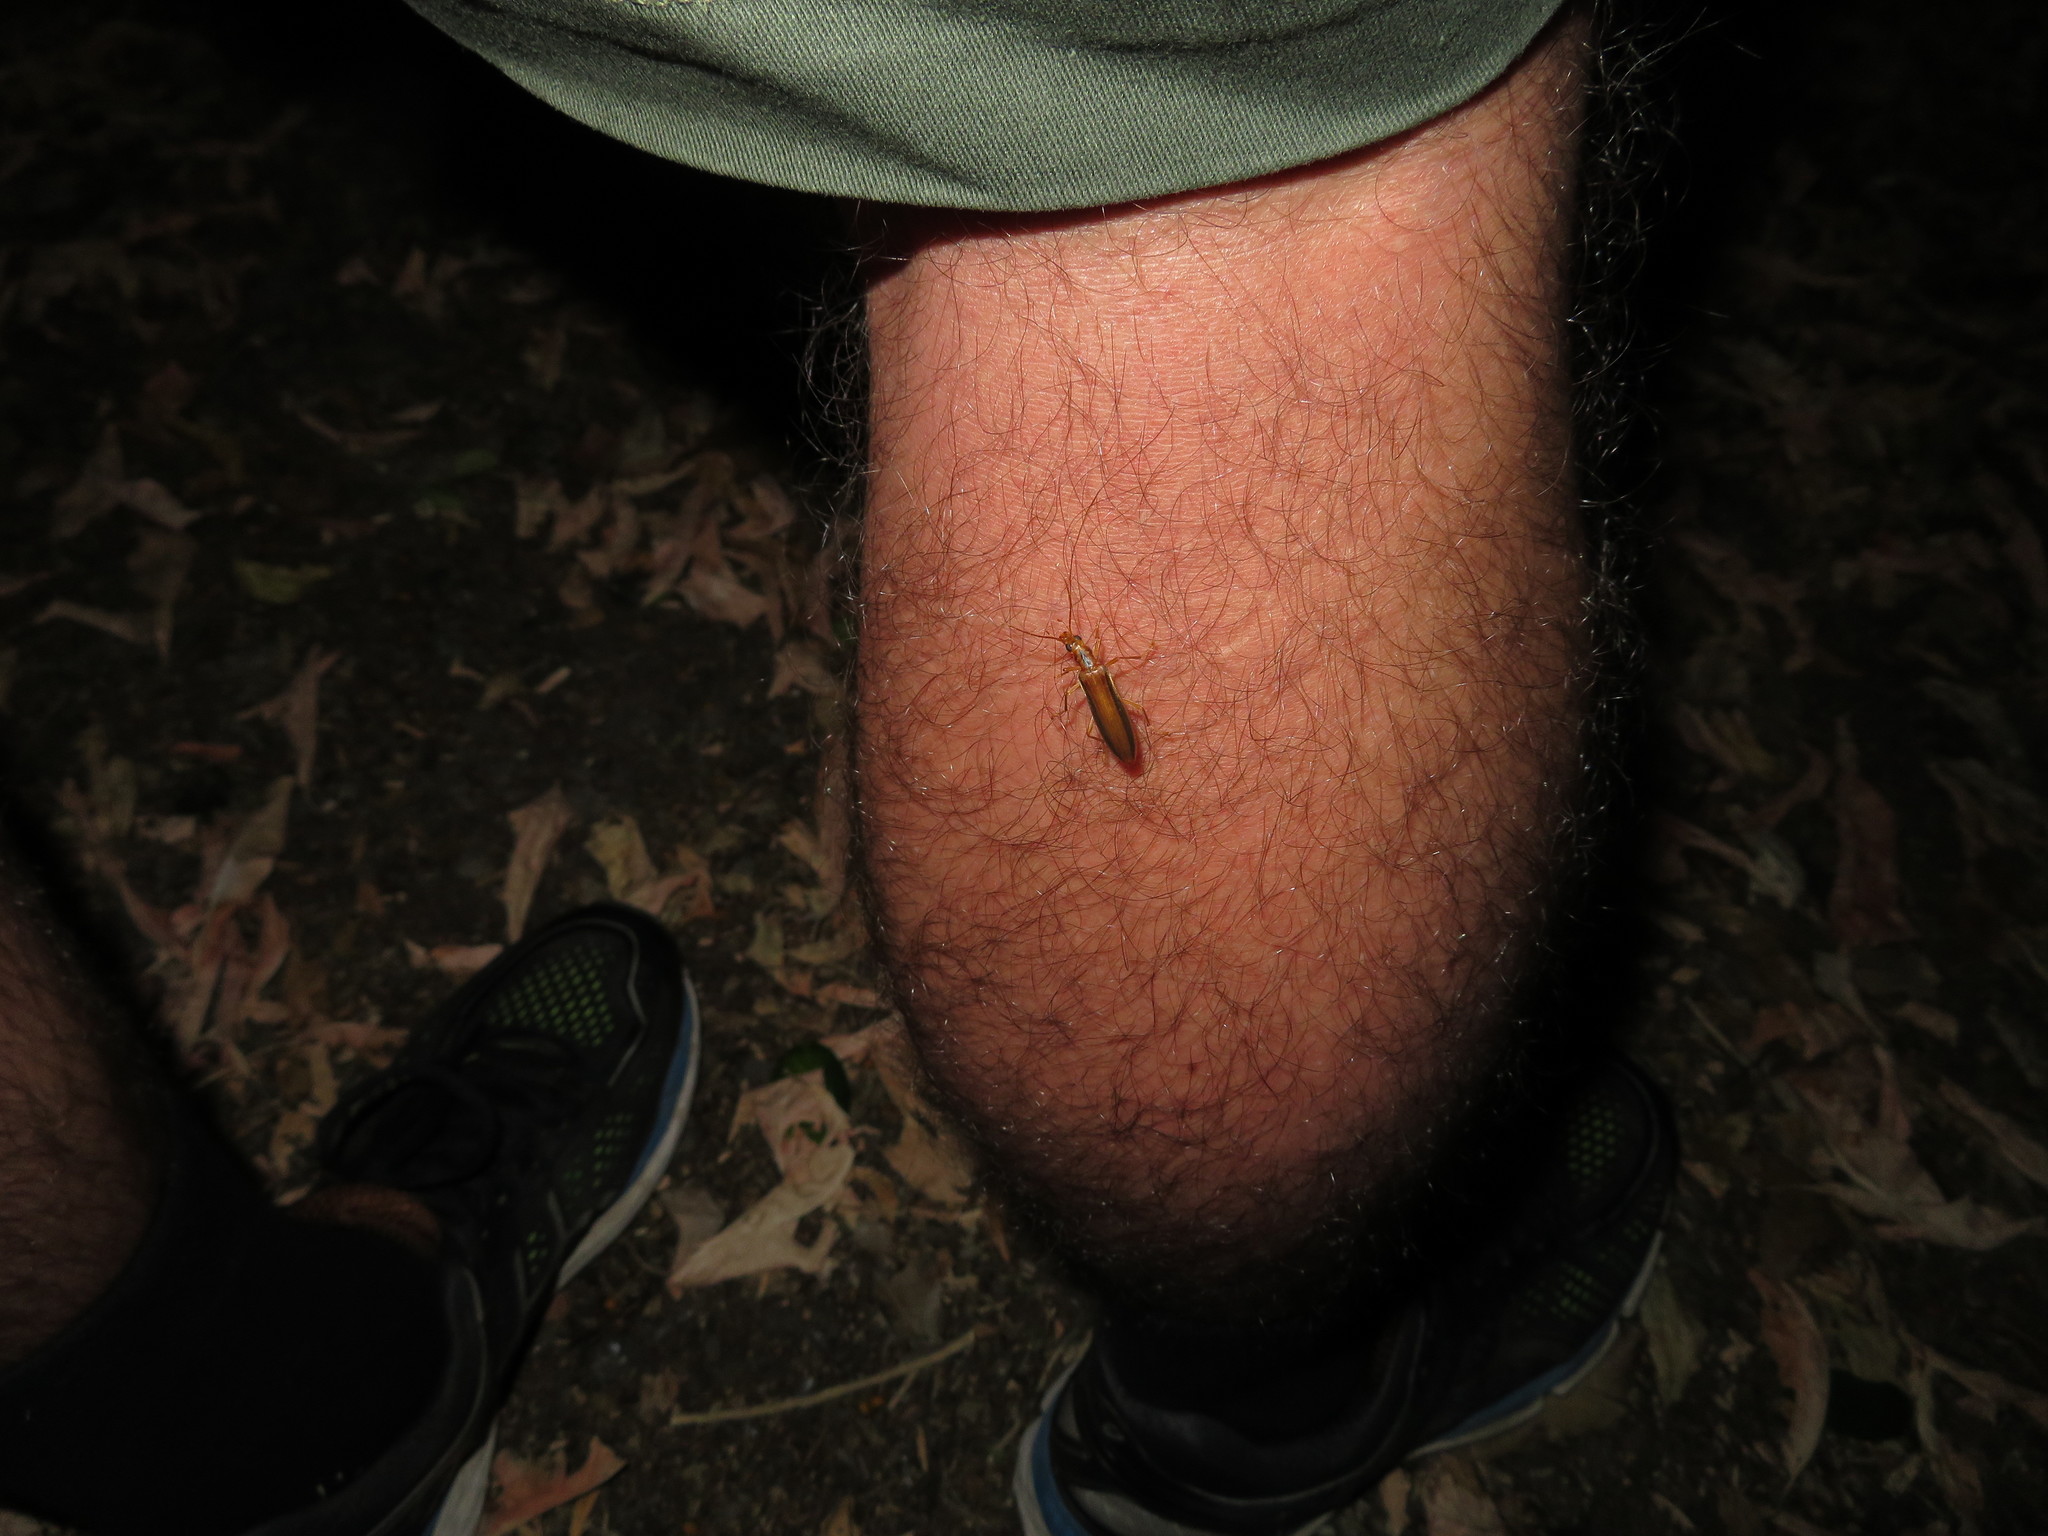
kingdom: Animalia
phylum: Arthropoda
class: Insecta
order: Coleoptera
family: Oedemeridae
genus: Thelyphassa
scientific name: Thelyphassa
